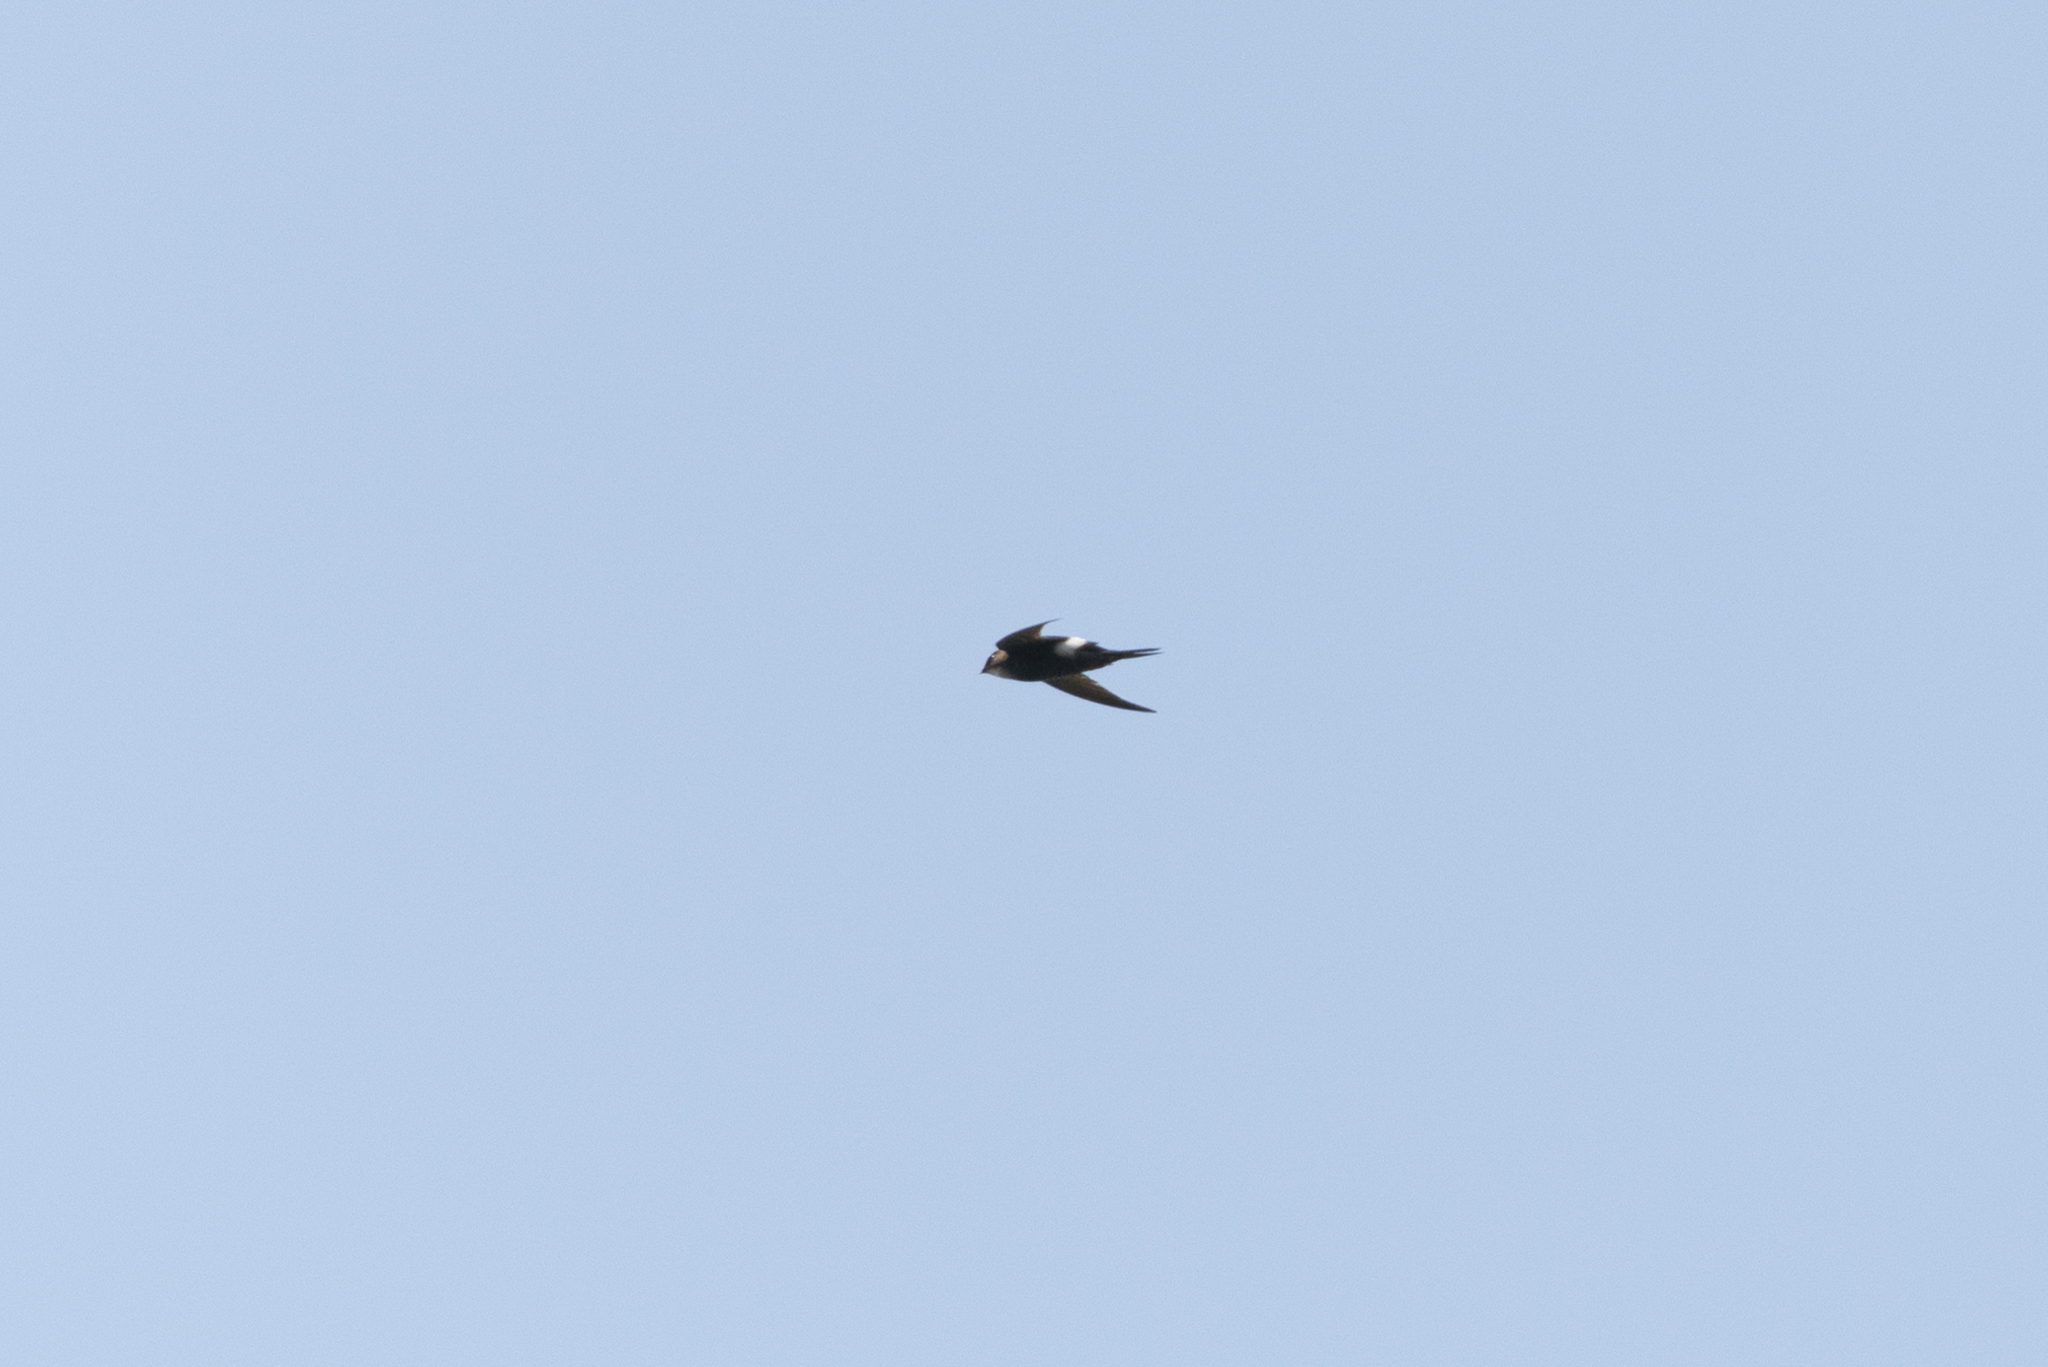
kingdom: Animalia
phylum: Chordata
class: Aves
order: Apodiformes
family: Apodidae
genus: Apus
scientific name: Apus pacificus
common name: Pacific swift
